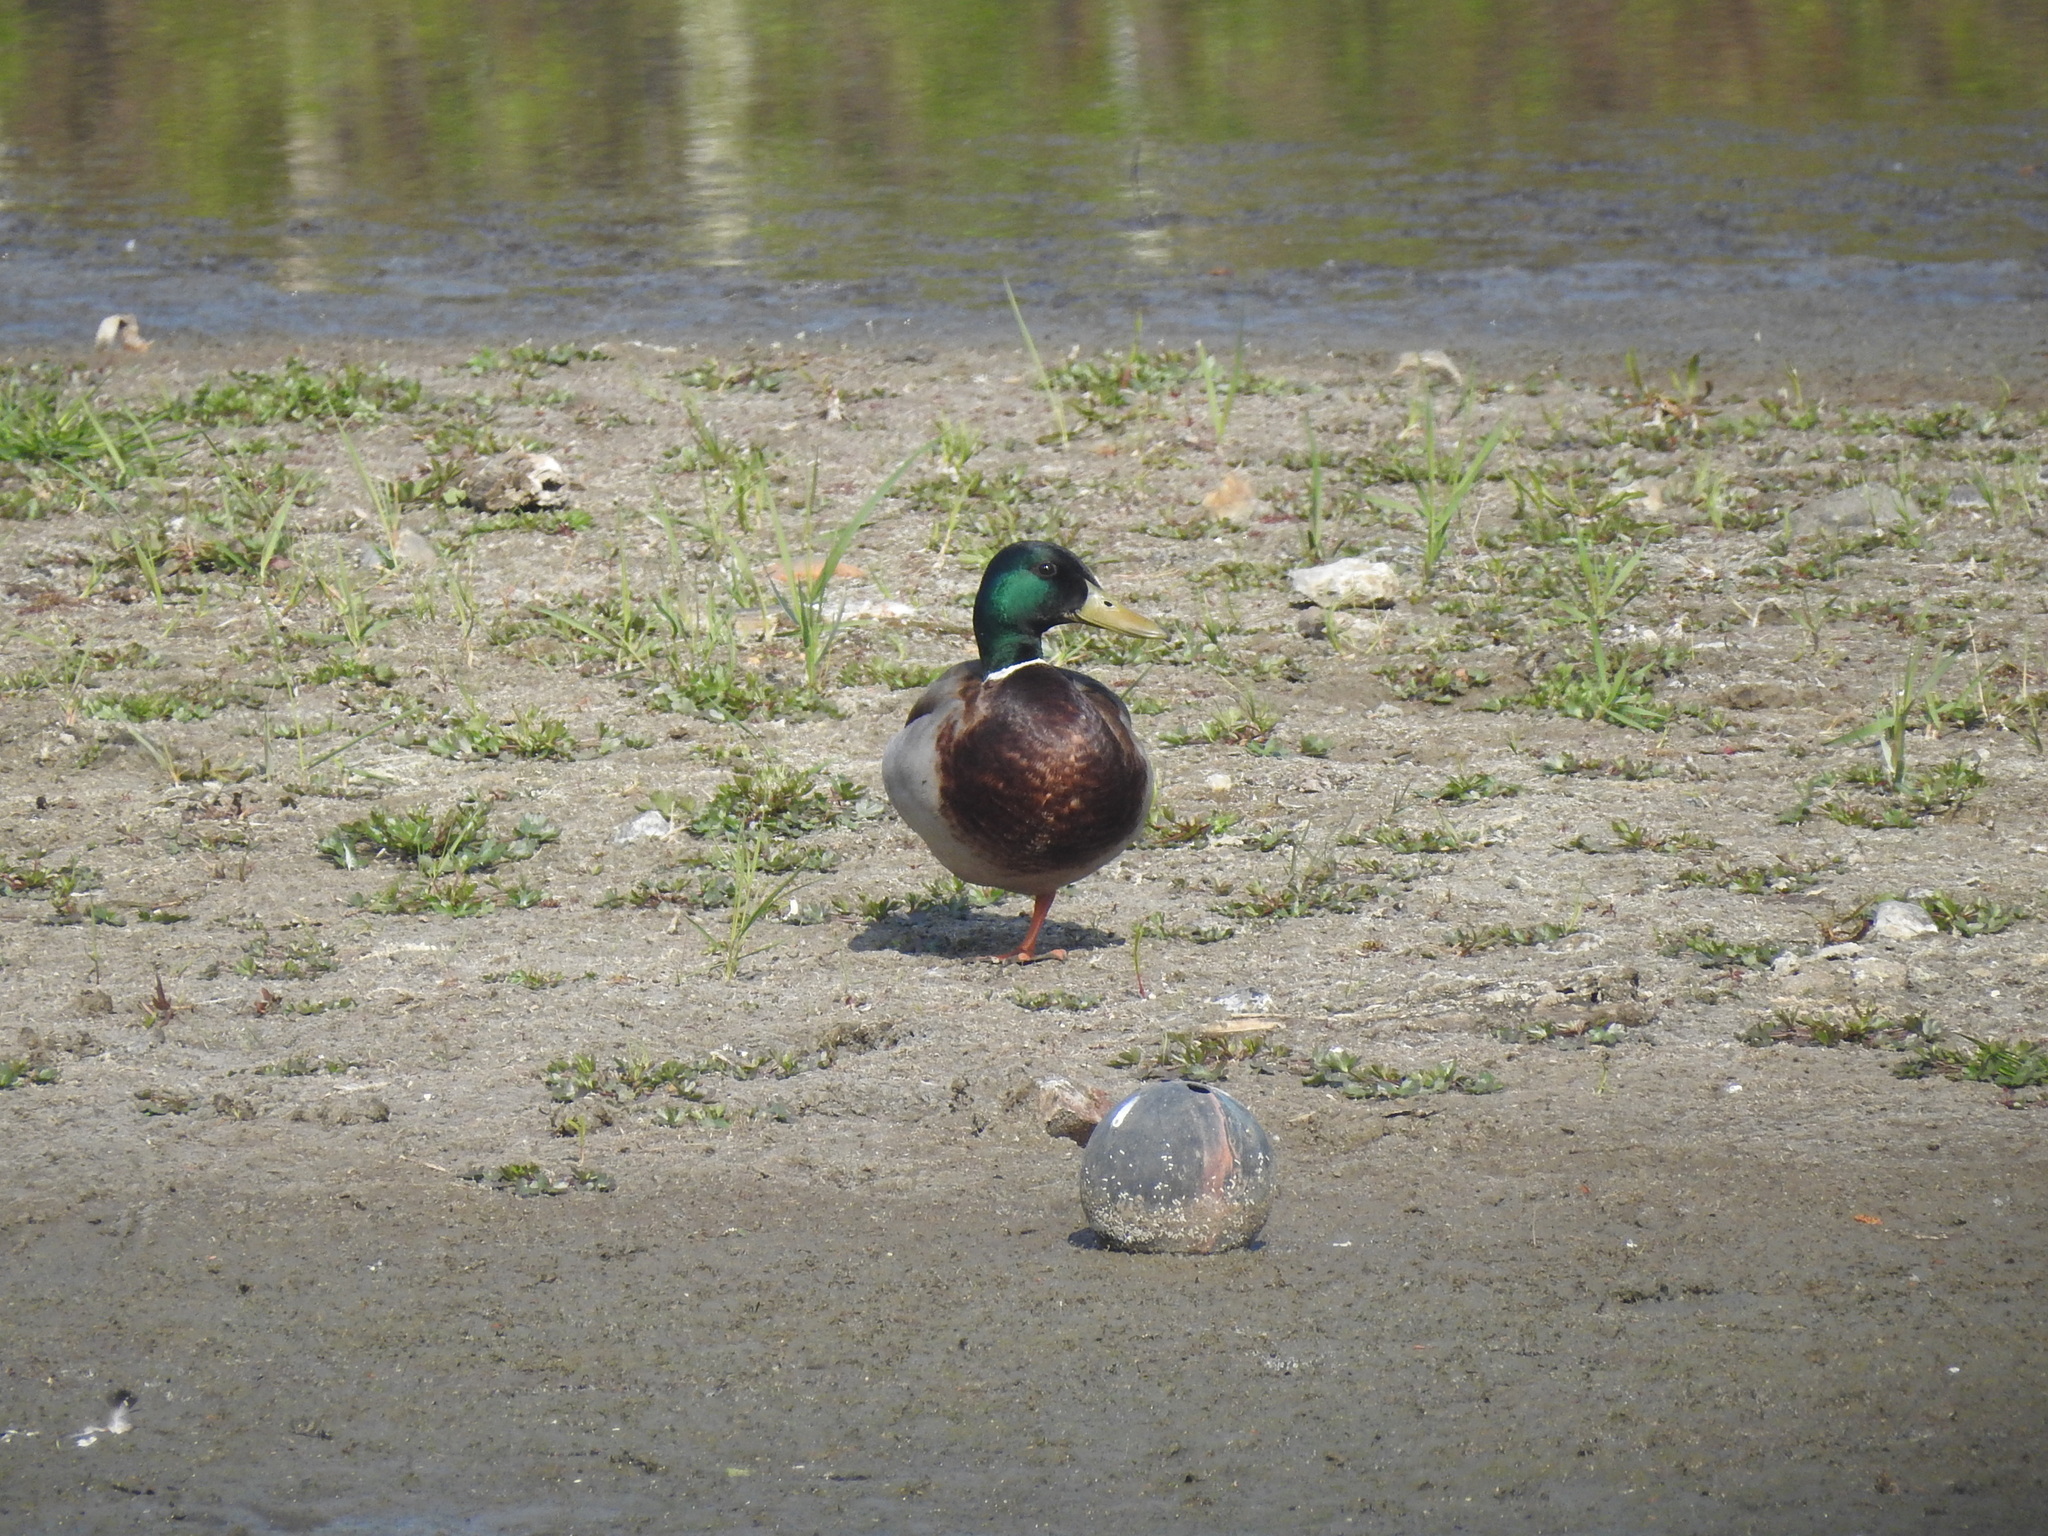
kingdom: Animalia
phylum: Chordata
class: Aves
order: Anseriformes
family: Anatidae
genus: Anas
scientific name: Anas platyrhynchos
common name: Mallard
